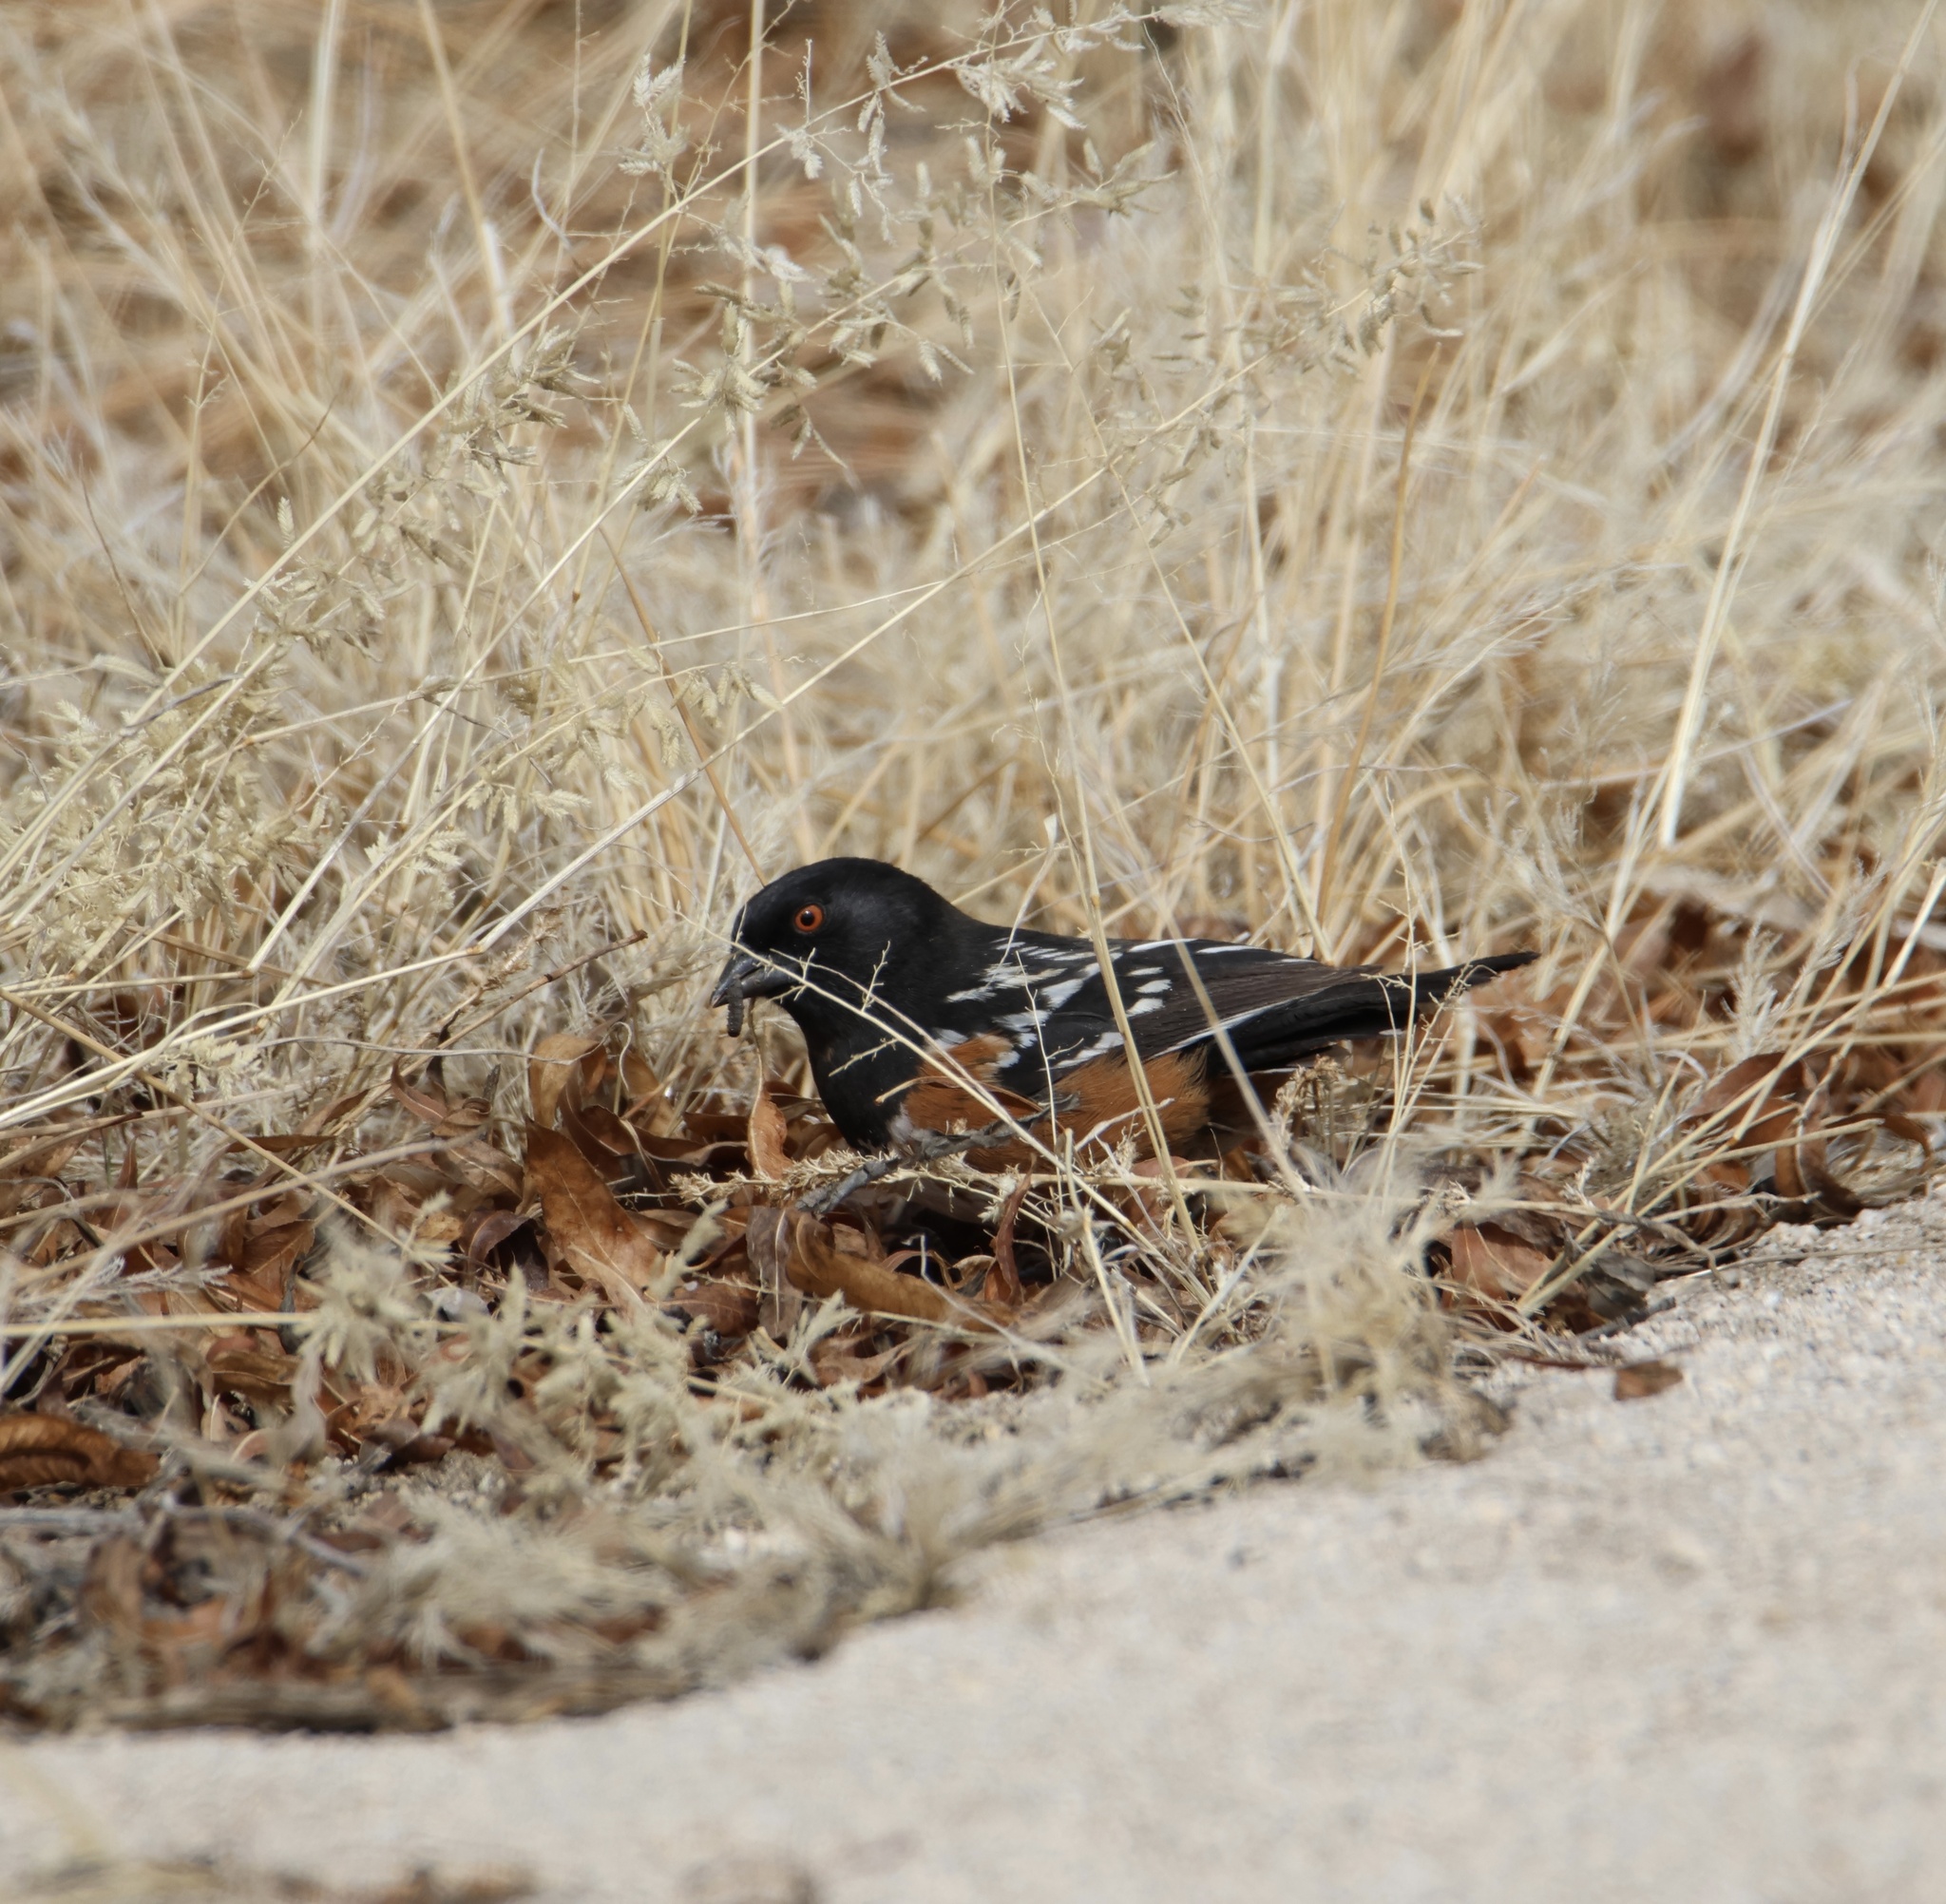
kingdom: Animalia
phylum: Chordata
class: Aves
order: Passeriformes
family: Passerellidae
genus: Pipilo
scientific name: Pipilo maculatus
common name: Spotted towhee
